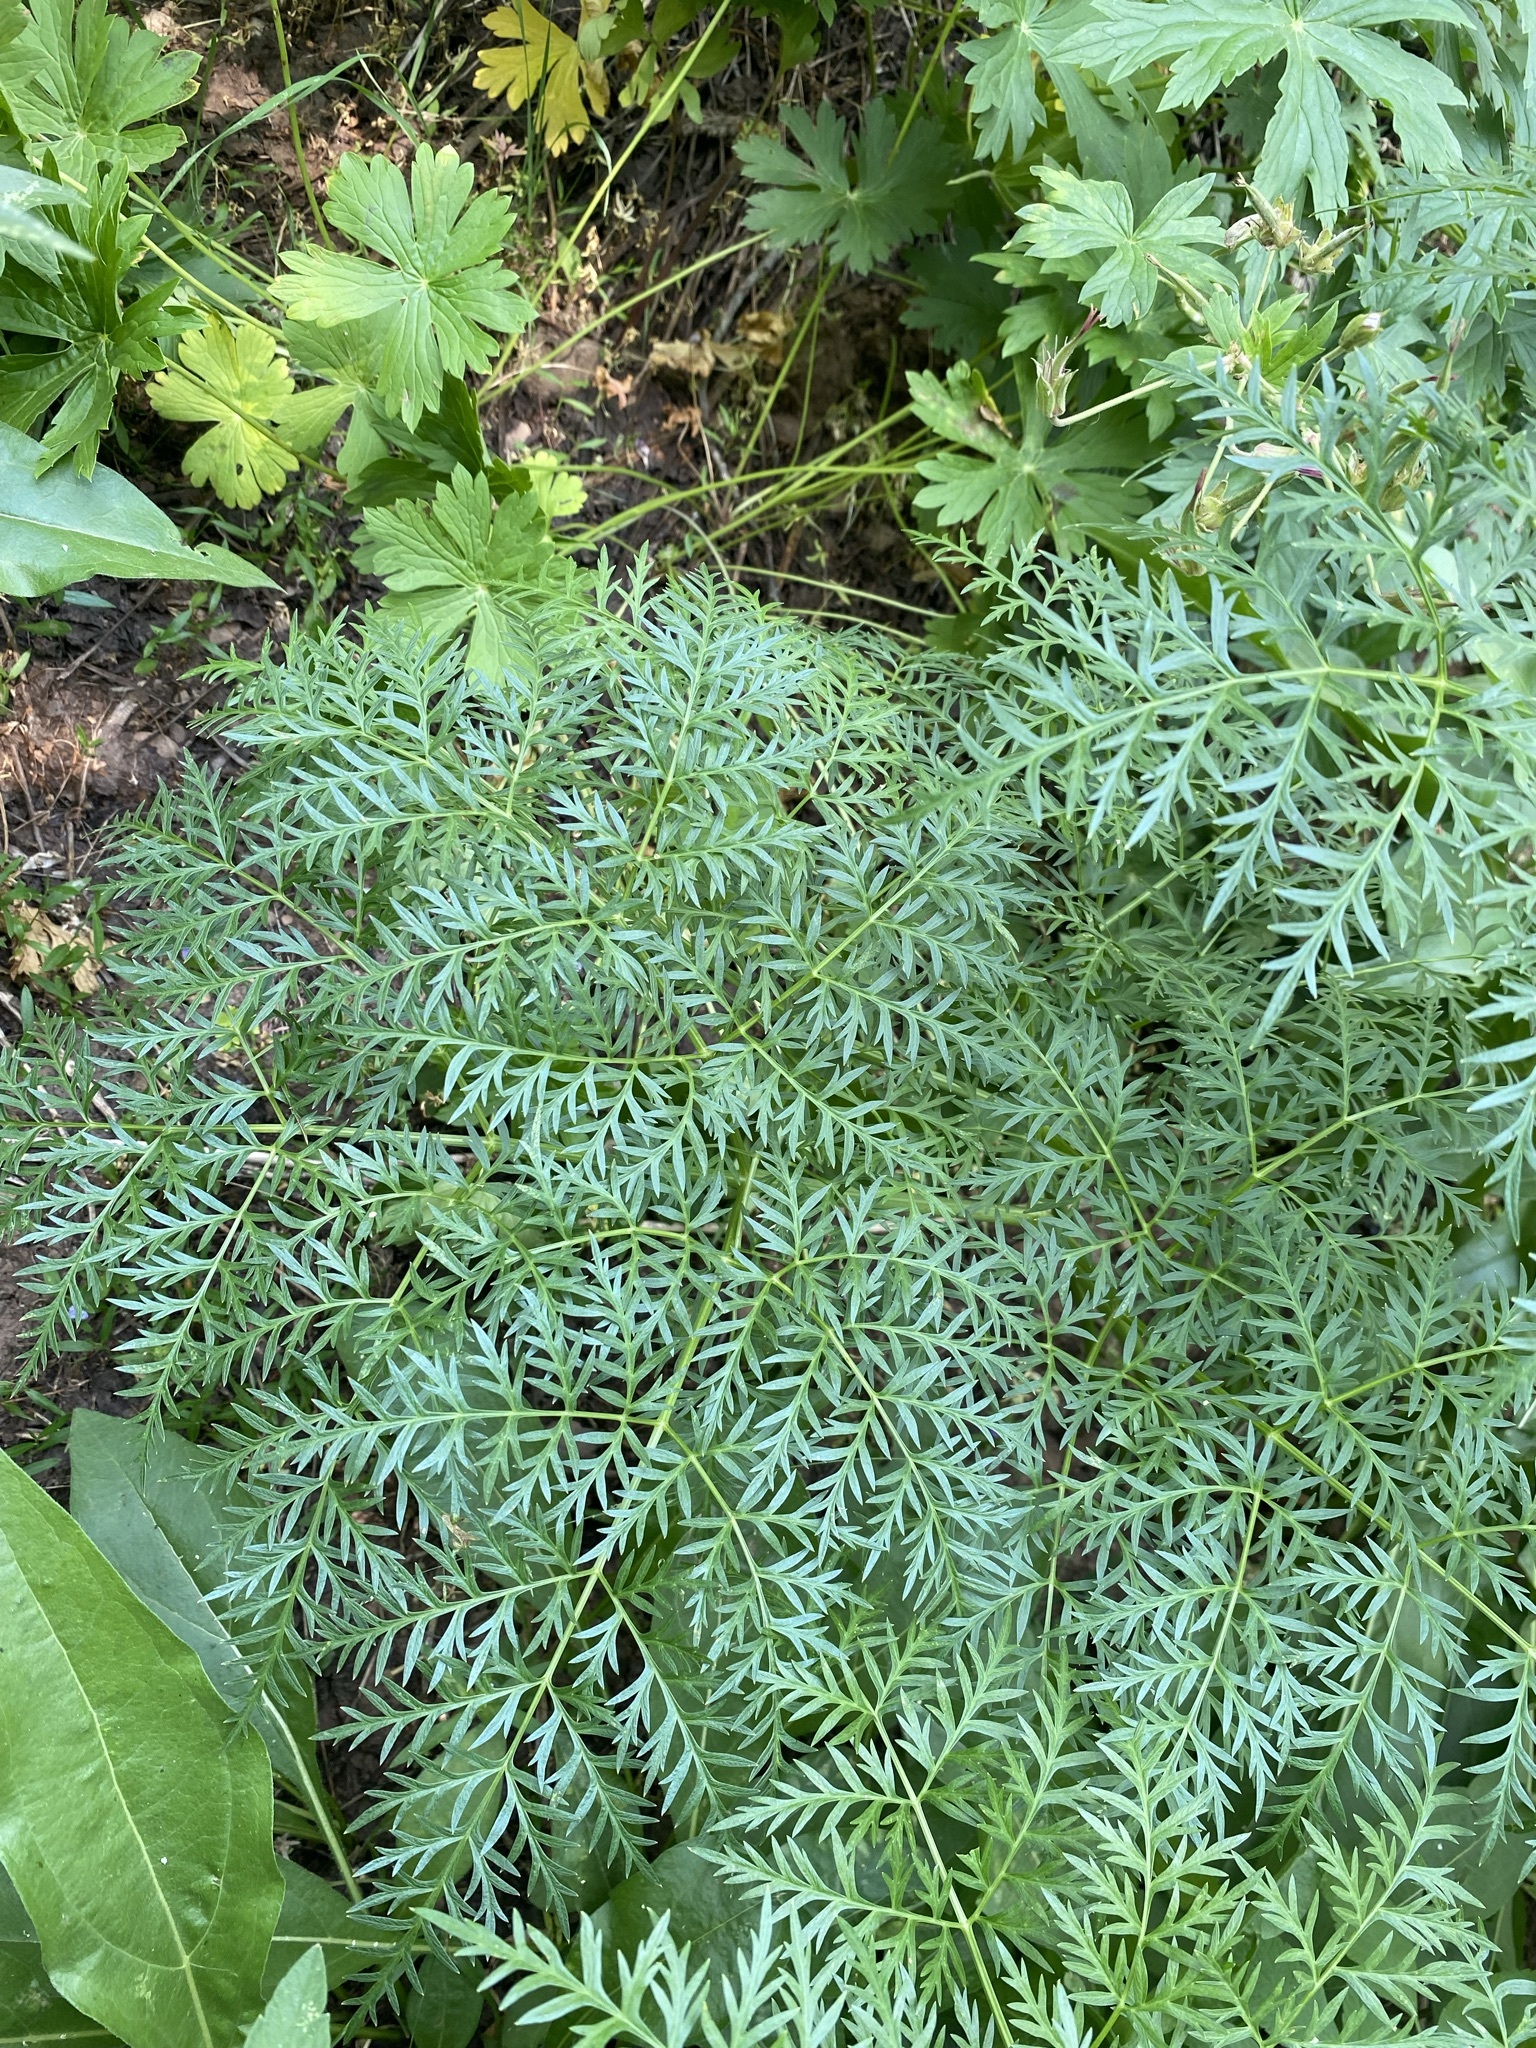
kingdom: Plantae
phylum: Tracheophyta
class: Magnoliopsida
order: Apiales
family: Apiaceae
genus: Ligusticum
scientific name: Ligusticum filicinum
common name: Fernleaf licorice-root
